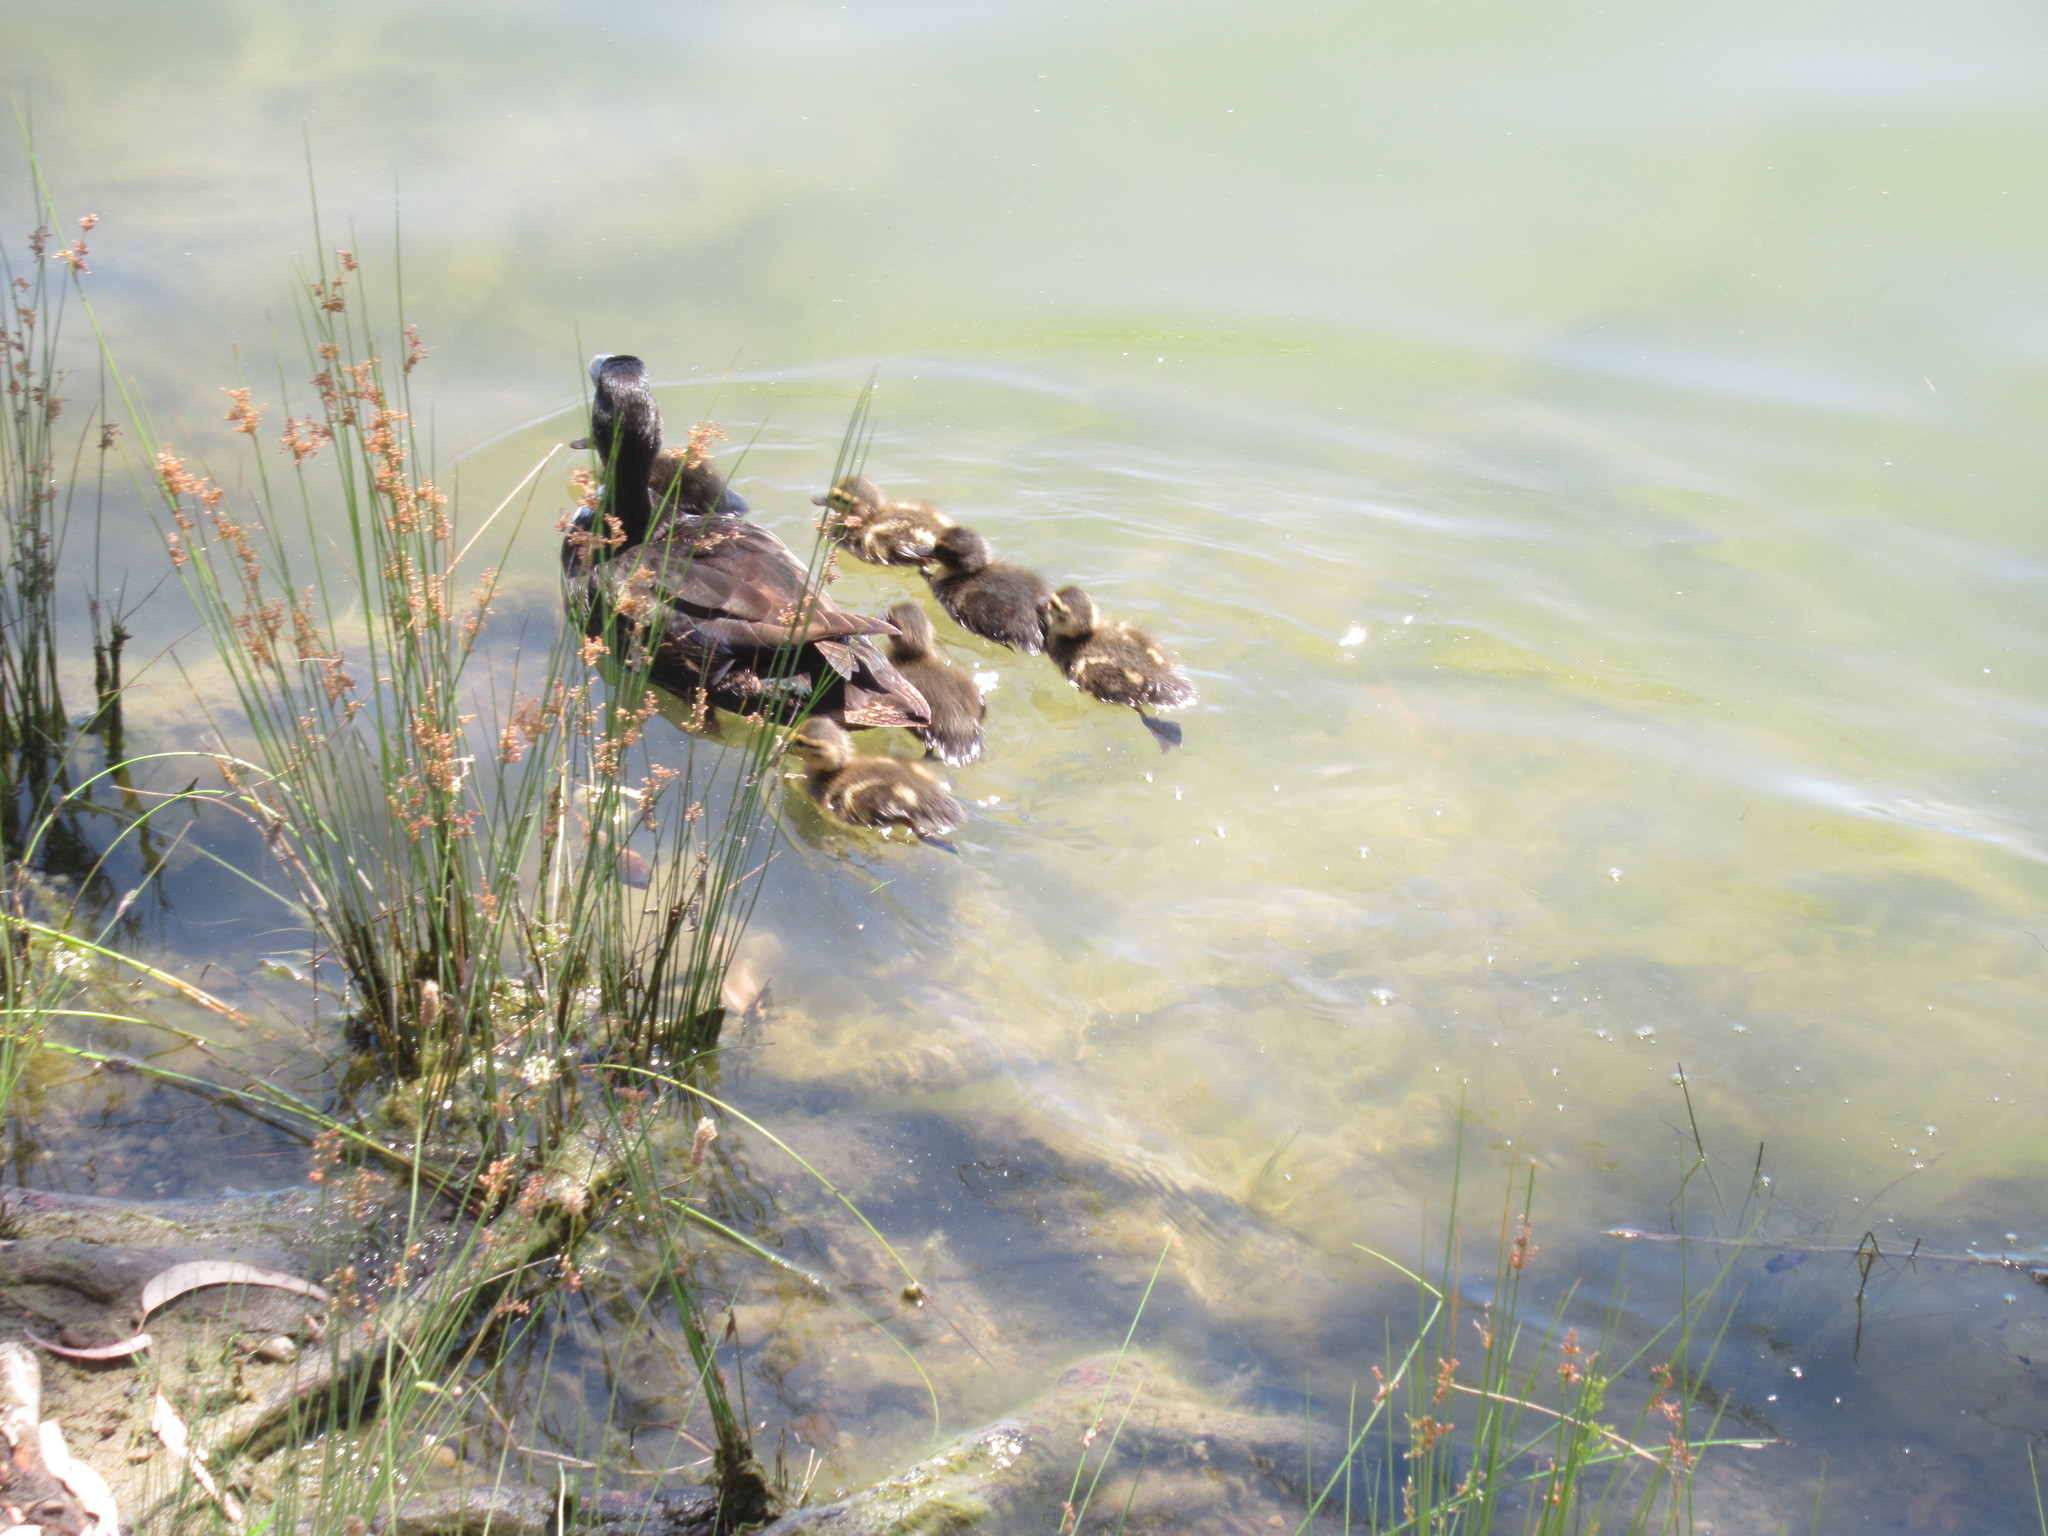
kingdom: Animalia
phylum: Chordata
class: Aves
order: Anseriformes
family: Anatidae
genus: Anas
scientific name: Anas platyrhynchos
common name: Mallard
